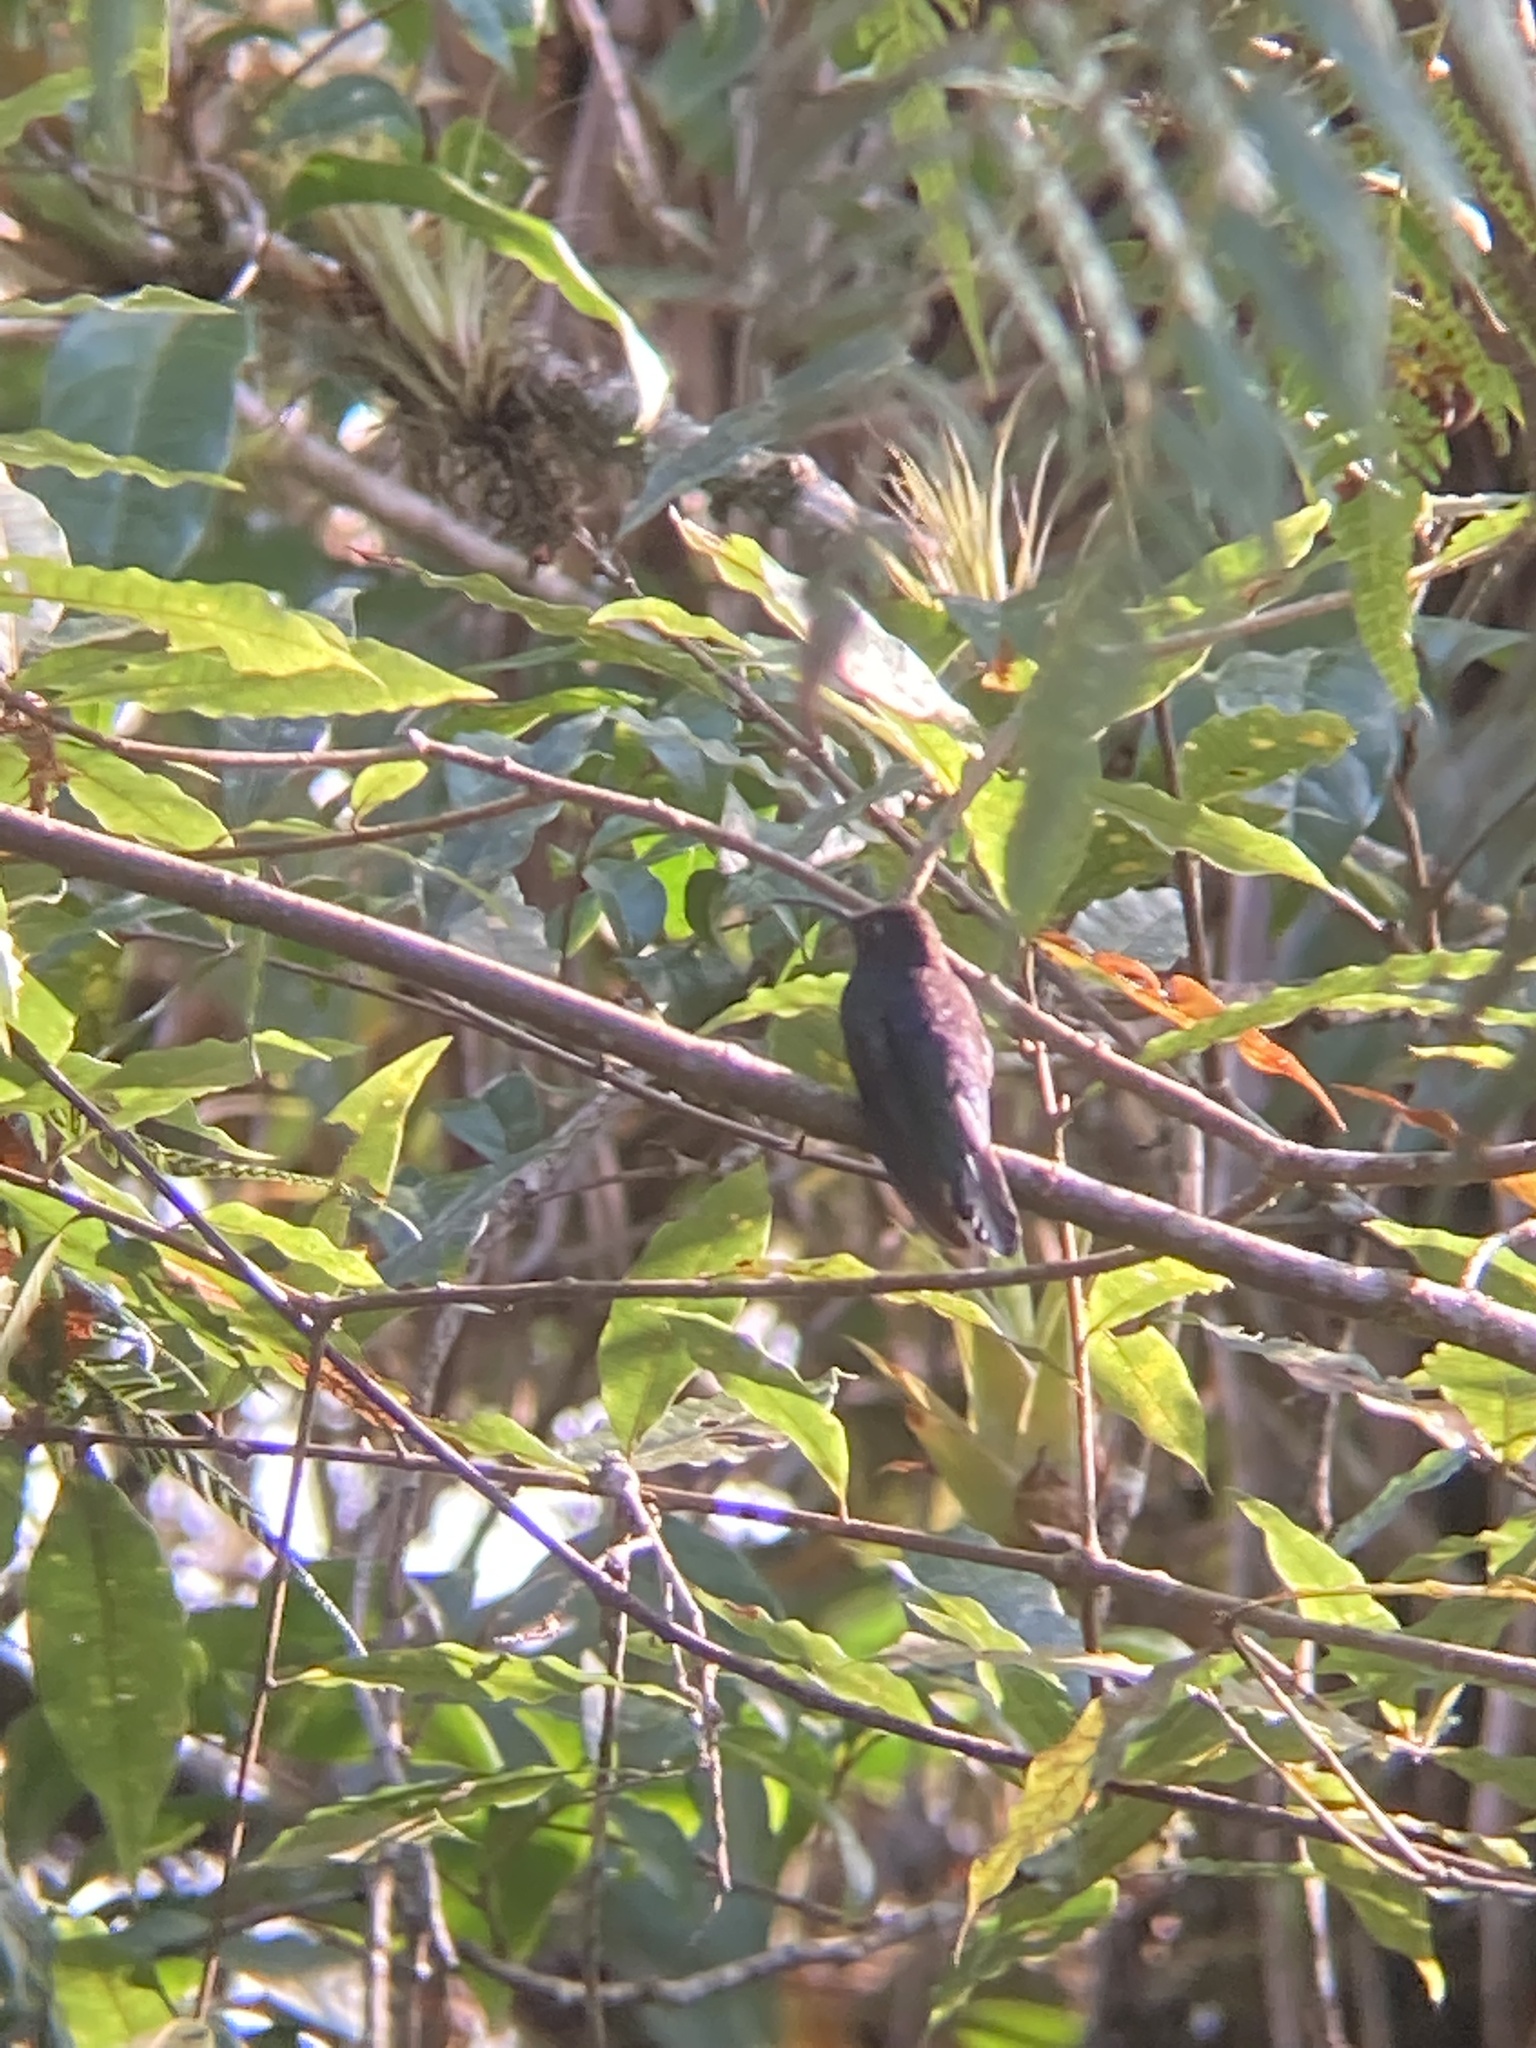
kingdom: Animalia
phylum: Chordata
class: Aves
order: Apodiformes
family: Trochilidae
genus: Campylopterus
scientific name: Campylopterus hemileucurus
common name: Violet sabrewing
